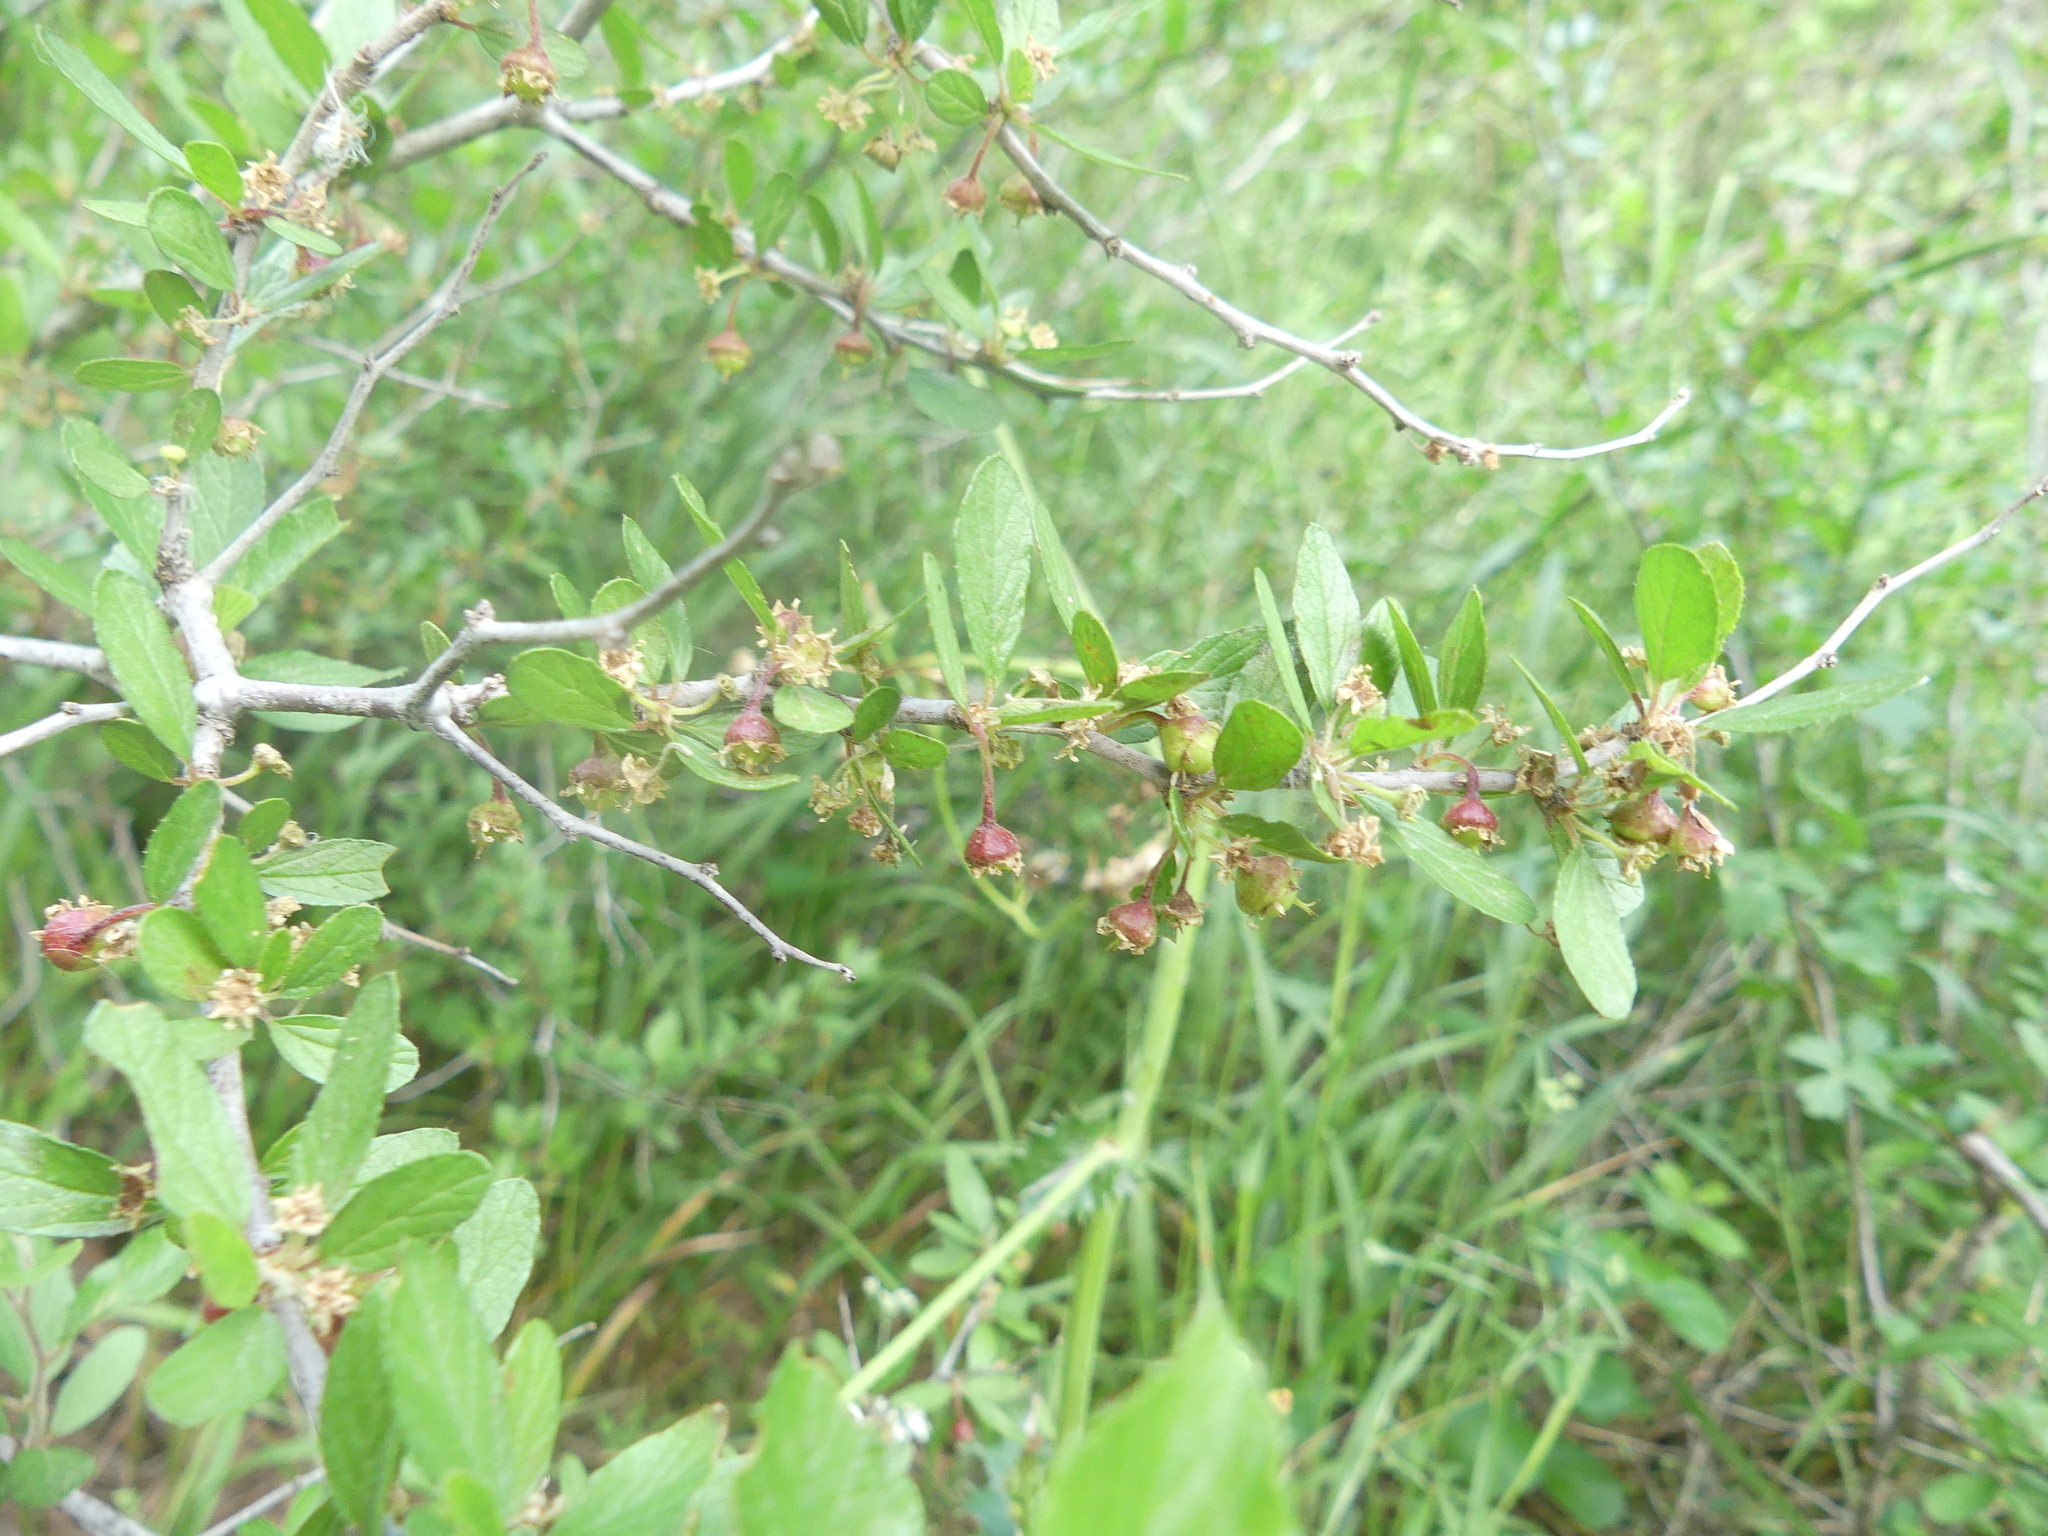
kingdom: Plantae
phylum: Tracheophyta
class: Magnoliopsida
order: Rosales
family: Rhamnaceae
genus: Colubrina
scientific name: Colubrina texensis
